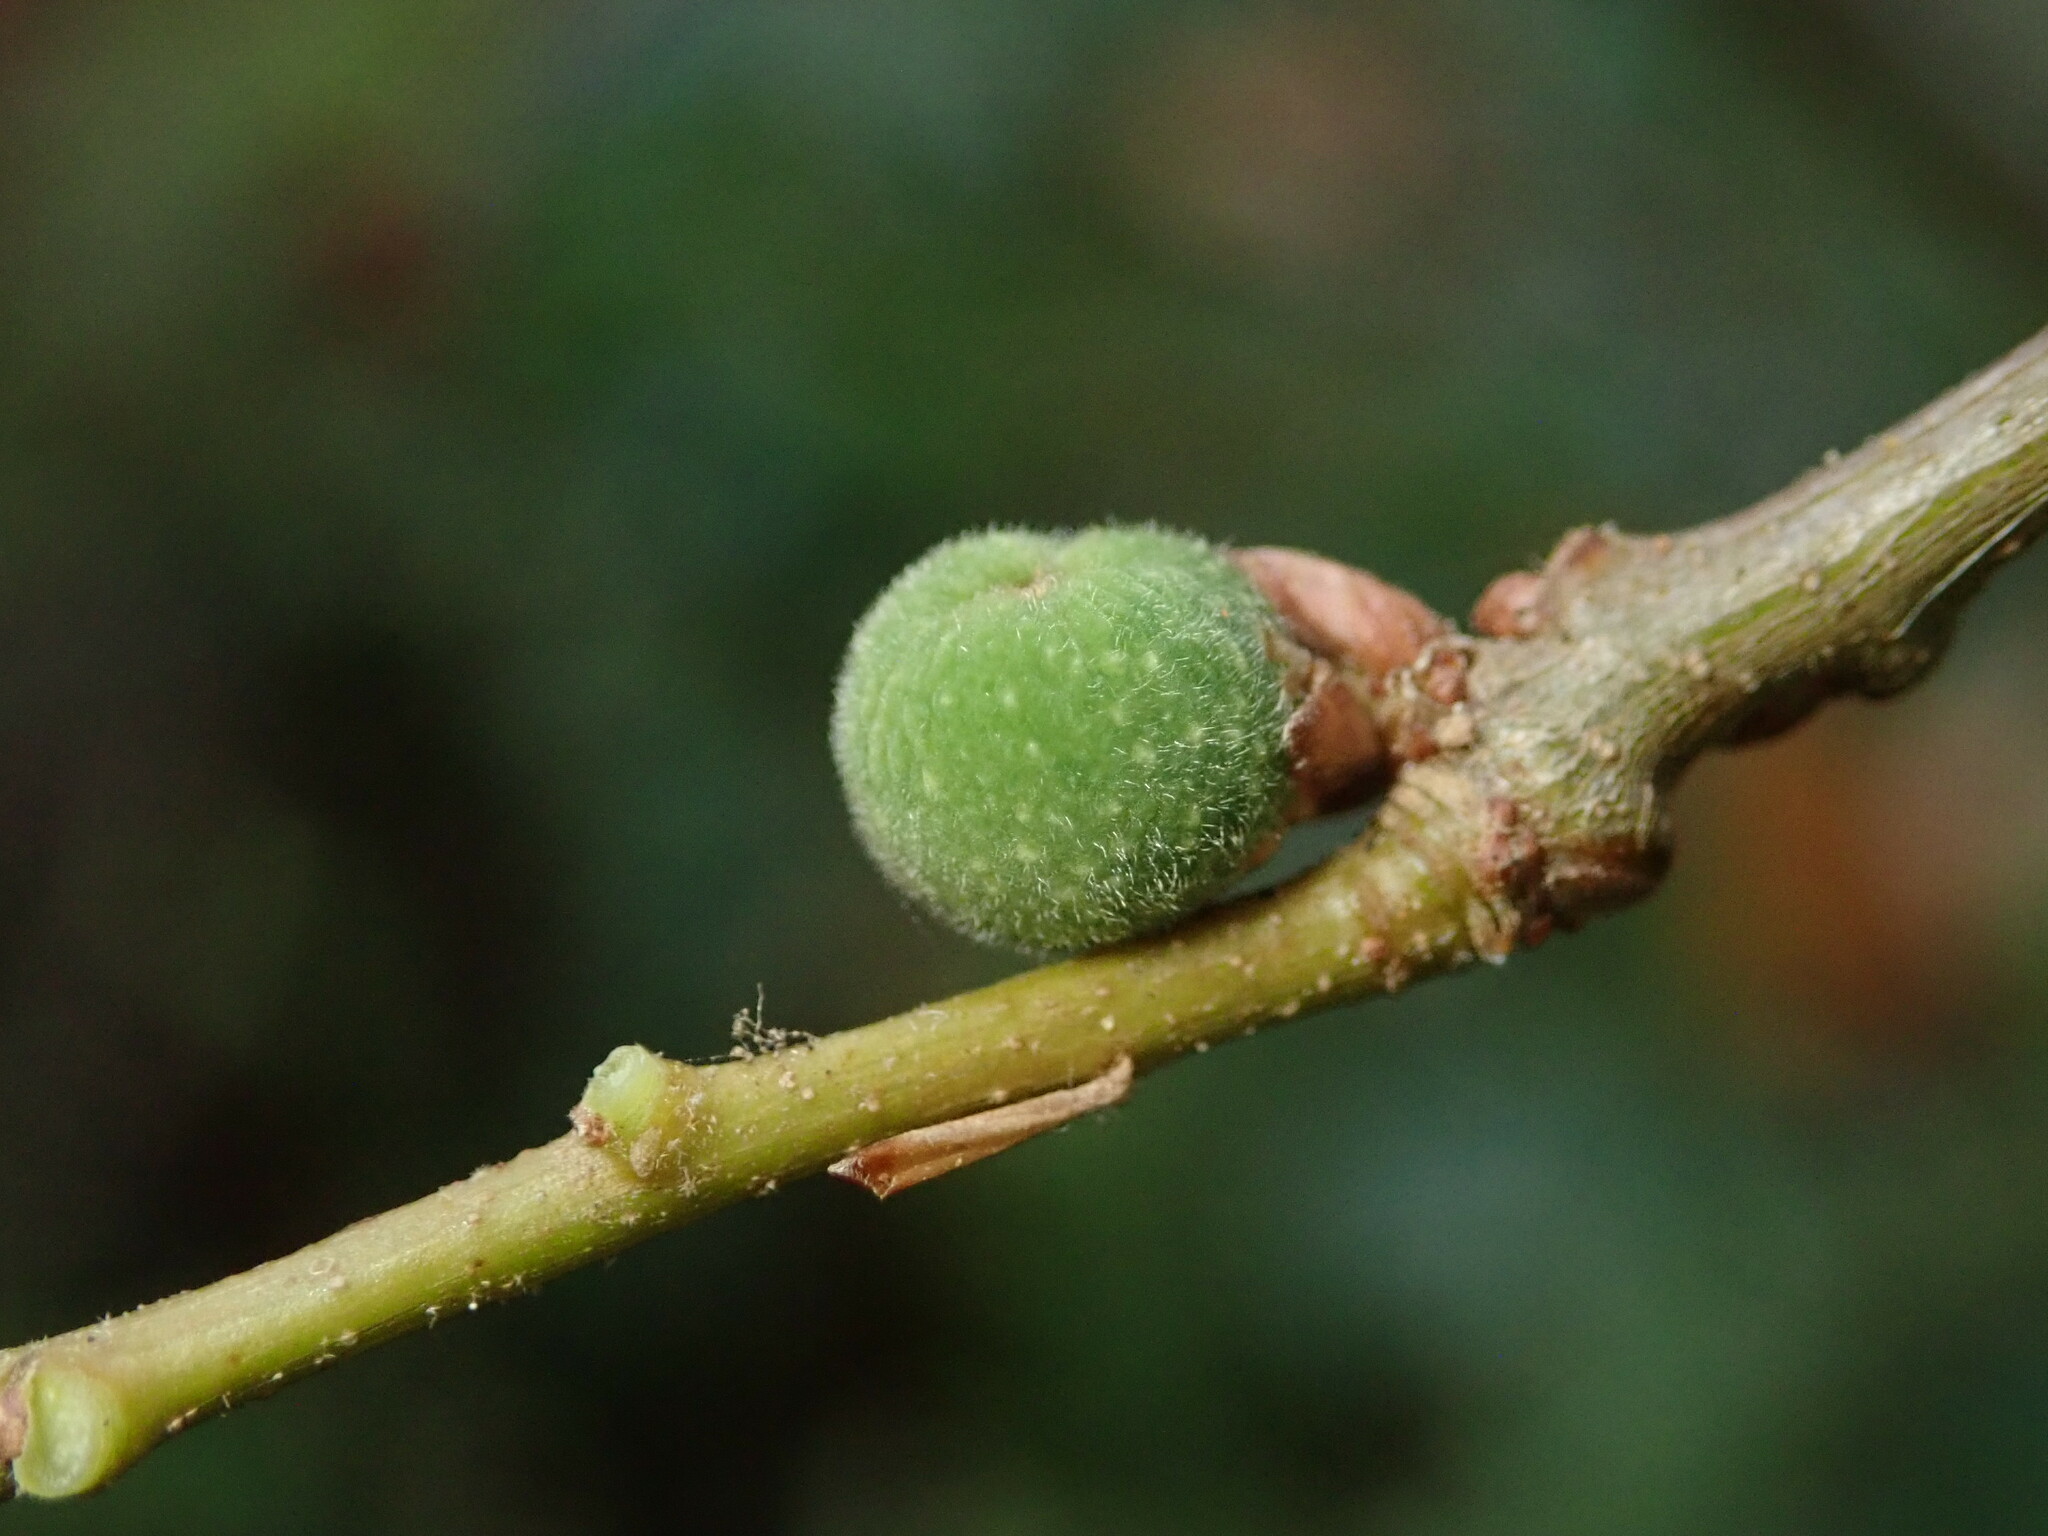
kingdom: Animalia
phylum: Arthropoda
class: Insecta
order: Hymenoptera
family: Cynipidae
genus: Callirhytis
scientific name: Callirhytis
